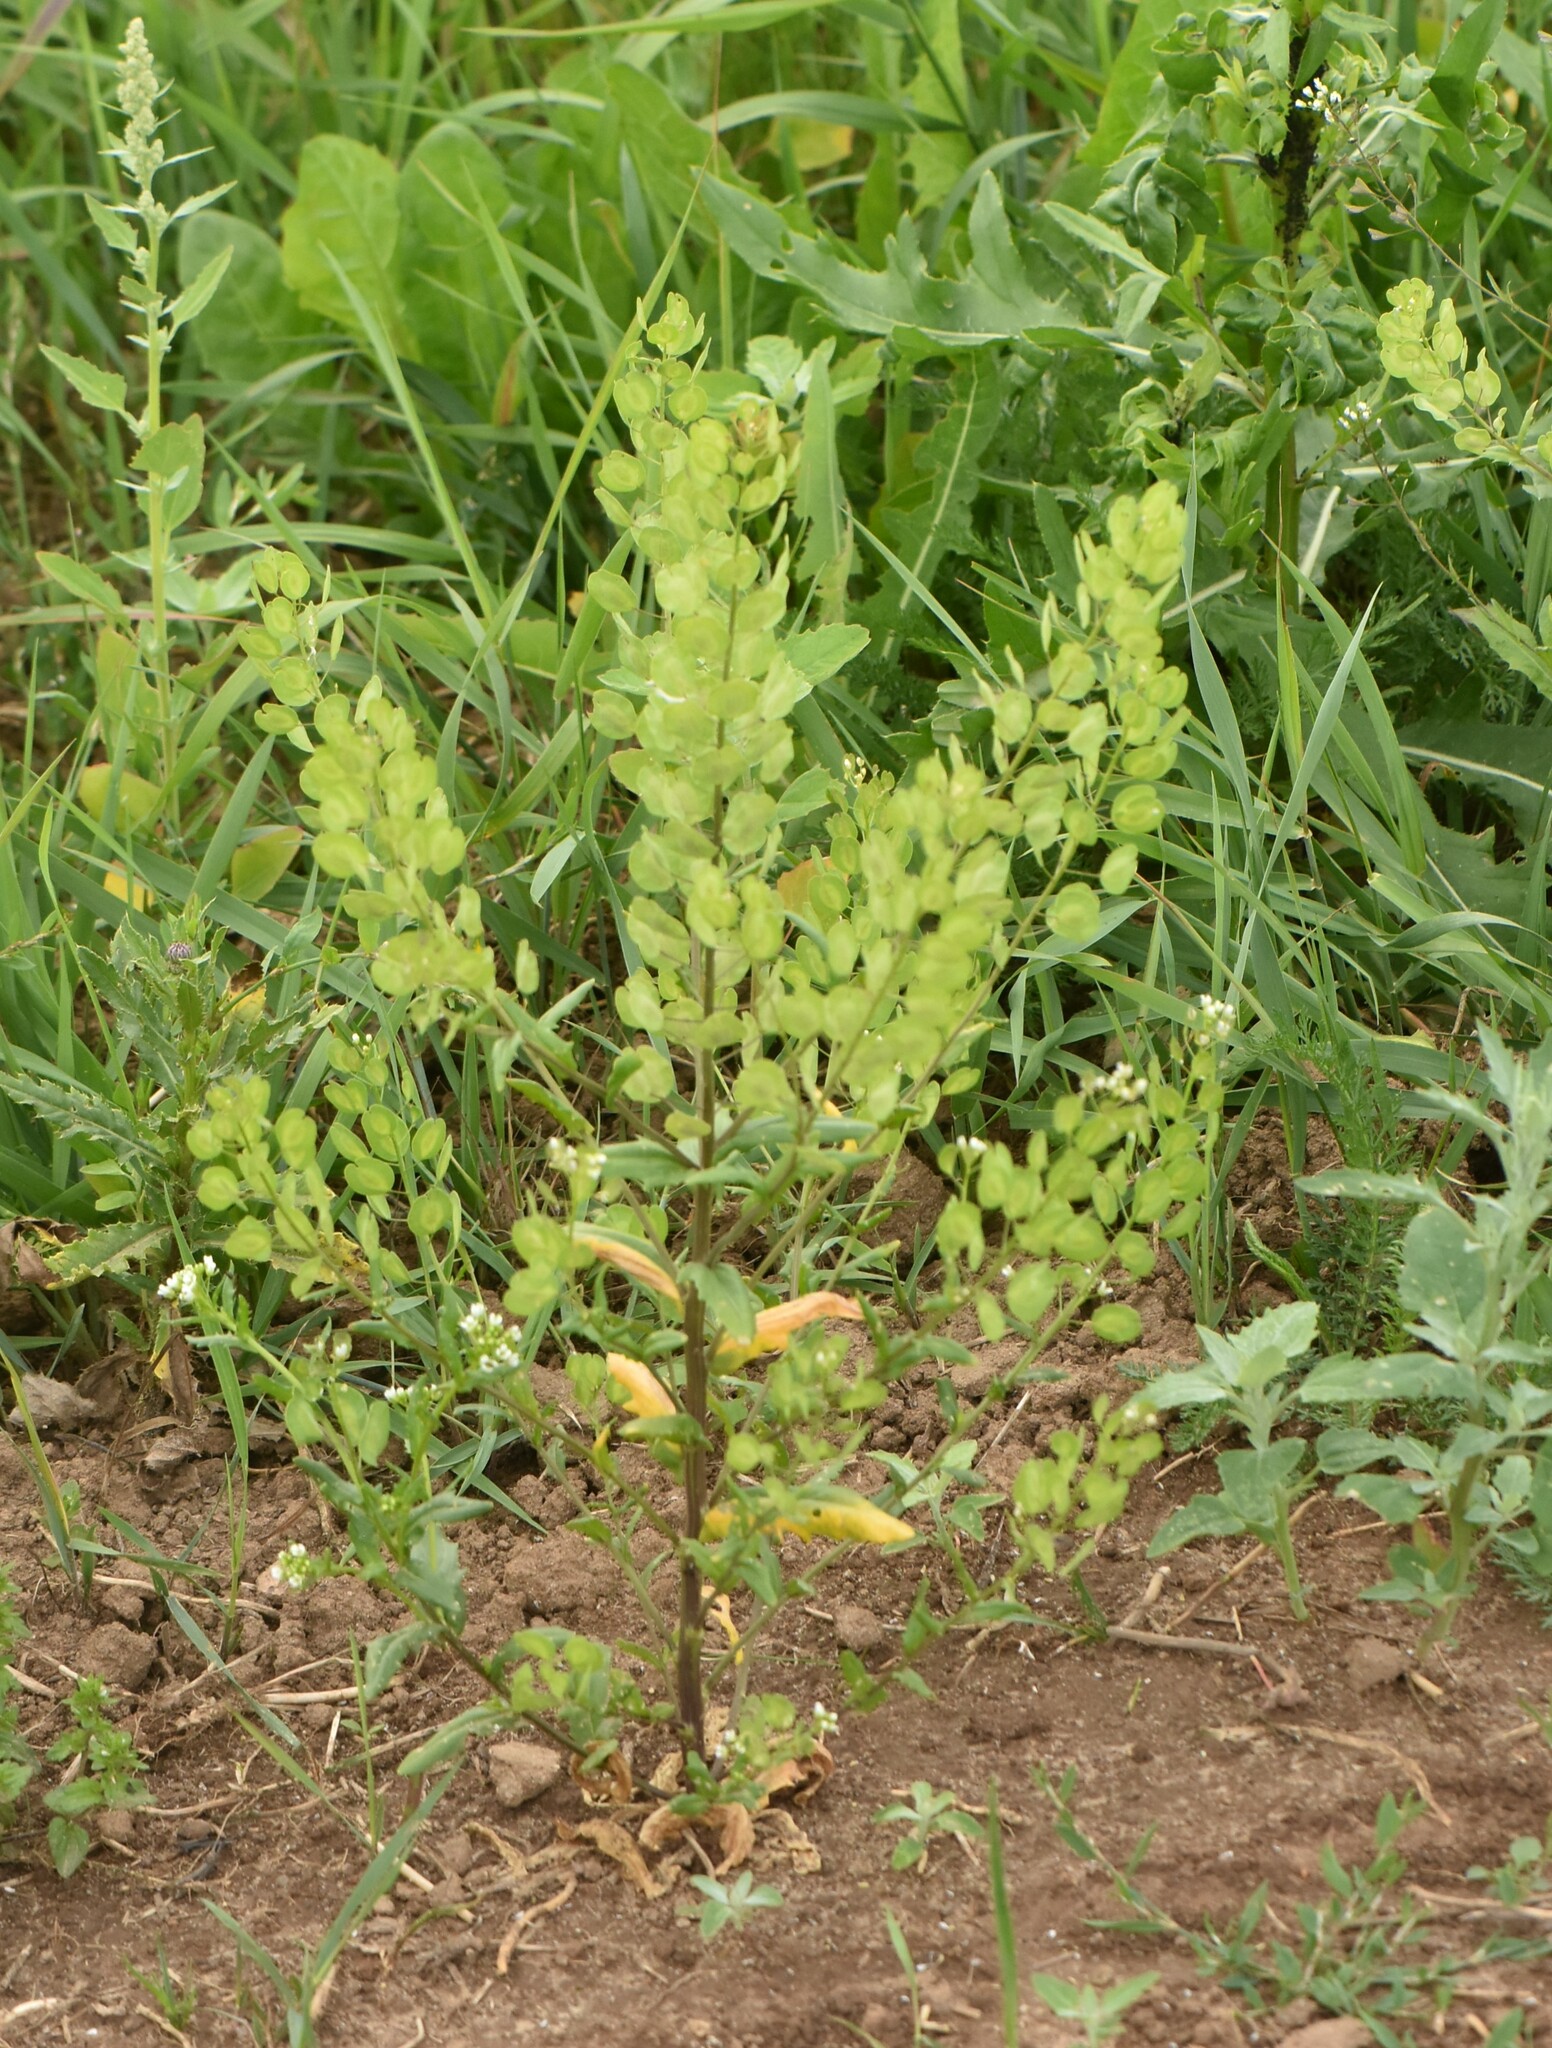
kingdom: Plantae
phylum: Tracheophyta
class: Magnoliopsida
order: Brassicales
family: Brassicaceae
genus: Thlaspi
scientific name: Thlaspi arvense
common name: Field pennycress
